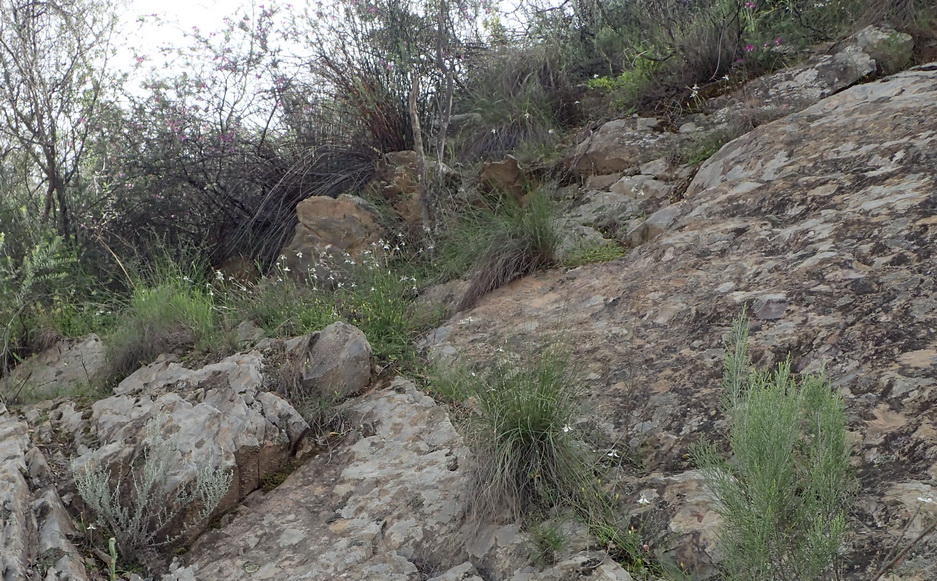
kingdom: Plantae
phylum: Tracheophyta
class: Liliopsida
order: Asparagales
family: Iridaceae
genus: Moraea
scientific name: Moraea unguiculata
